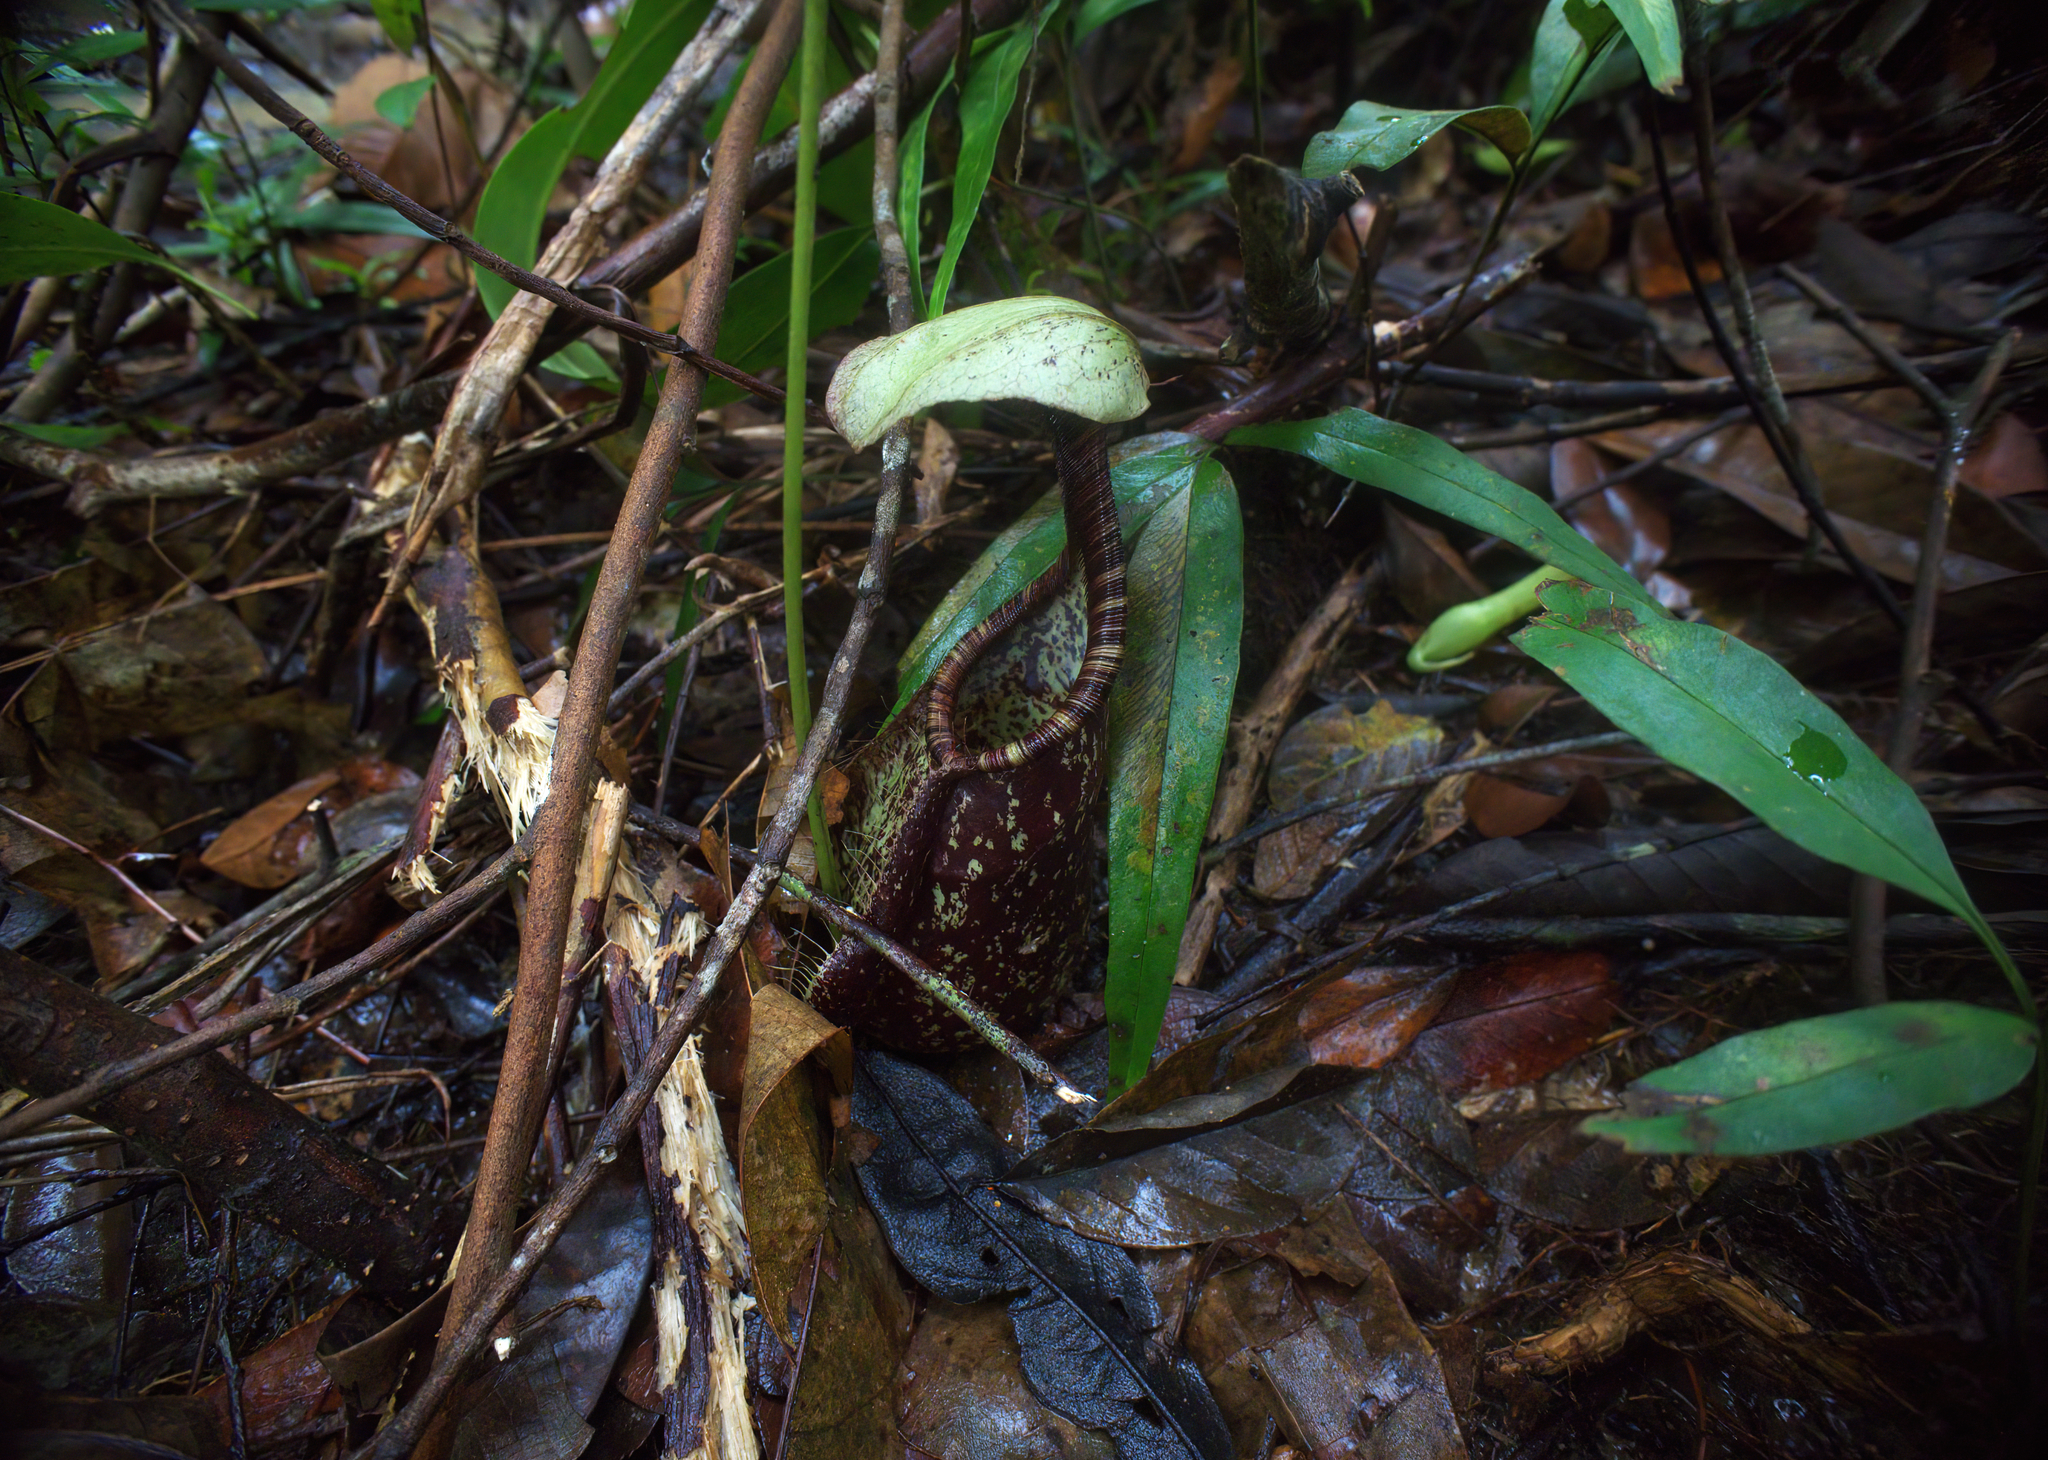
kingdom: Plantae
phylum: Tracheophyta
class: Magnoliopsida
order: Caryophyllales
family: Nepenthaceae
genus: Nepenthes
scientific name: Nepenthes rafflesiana
